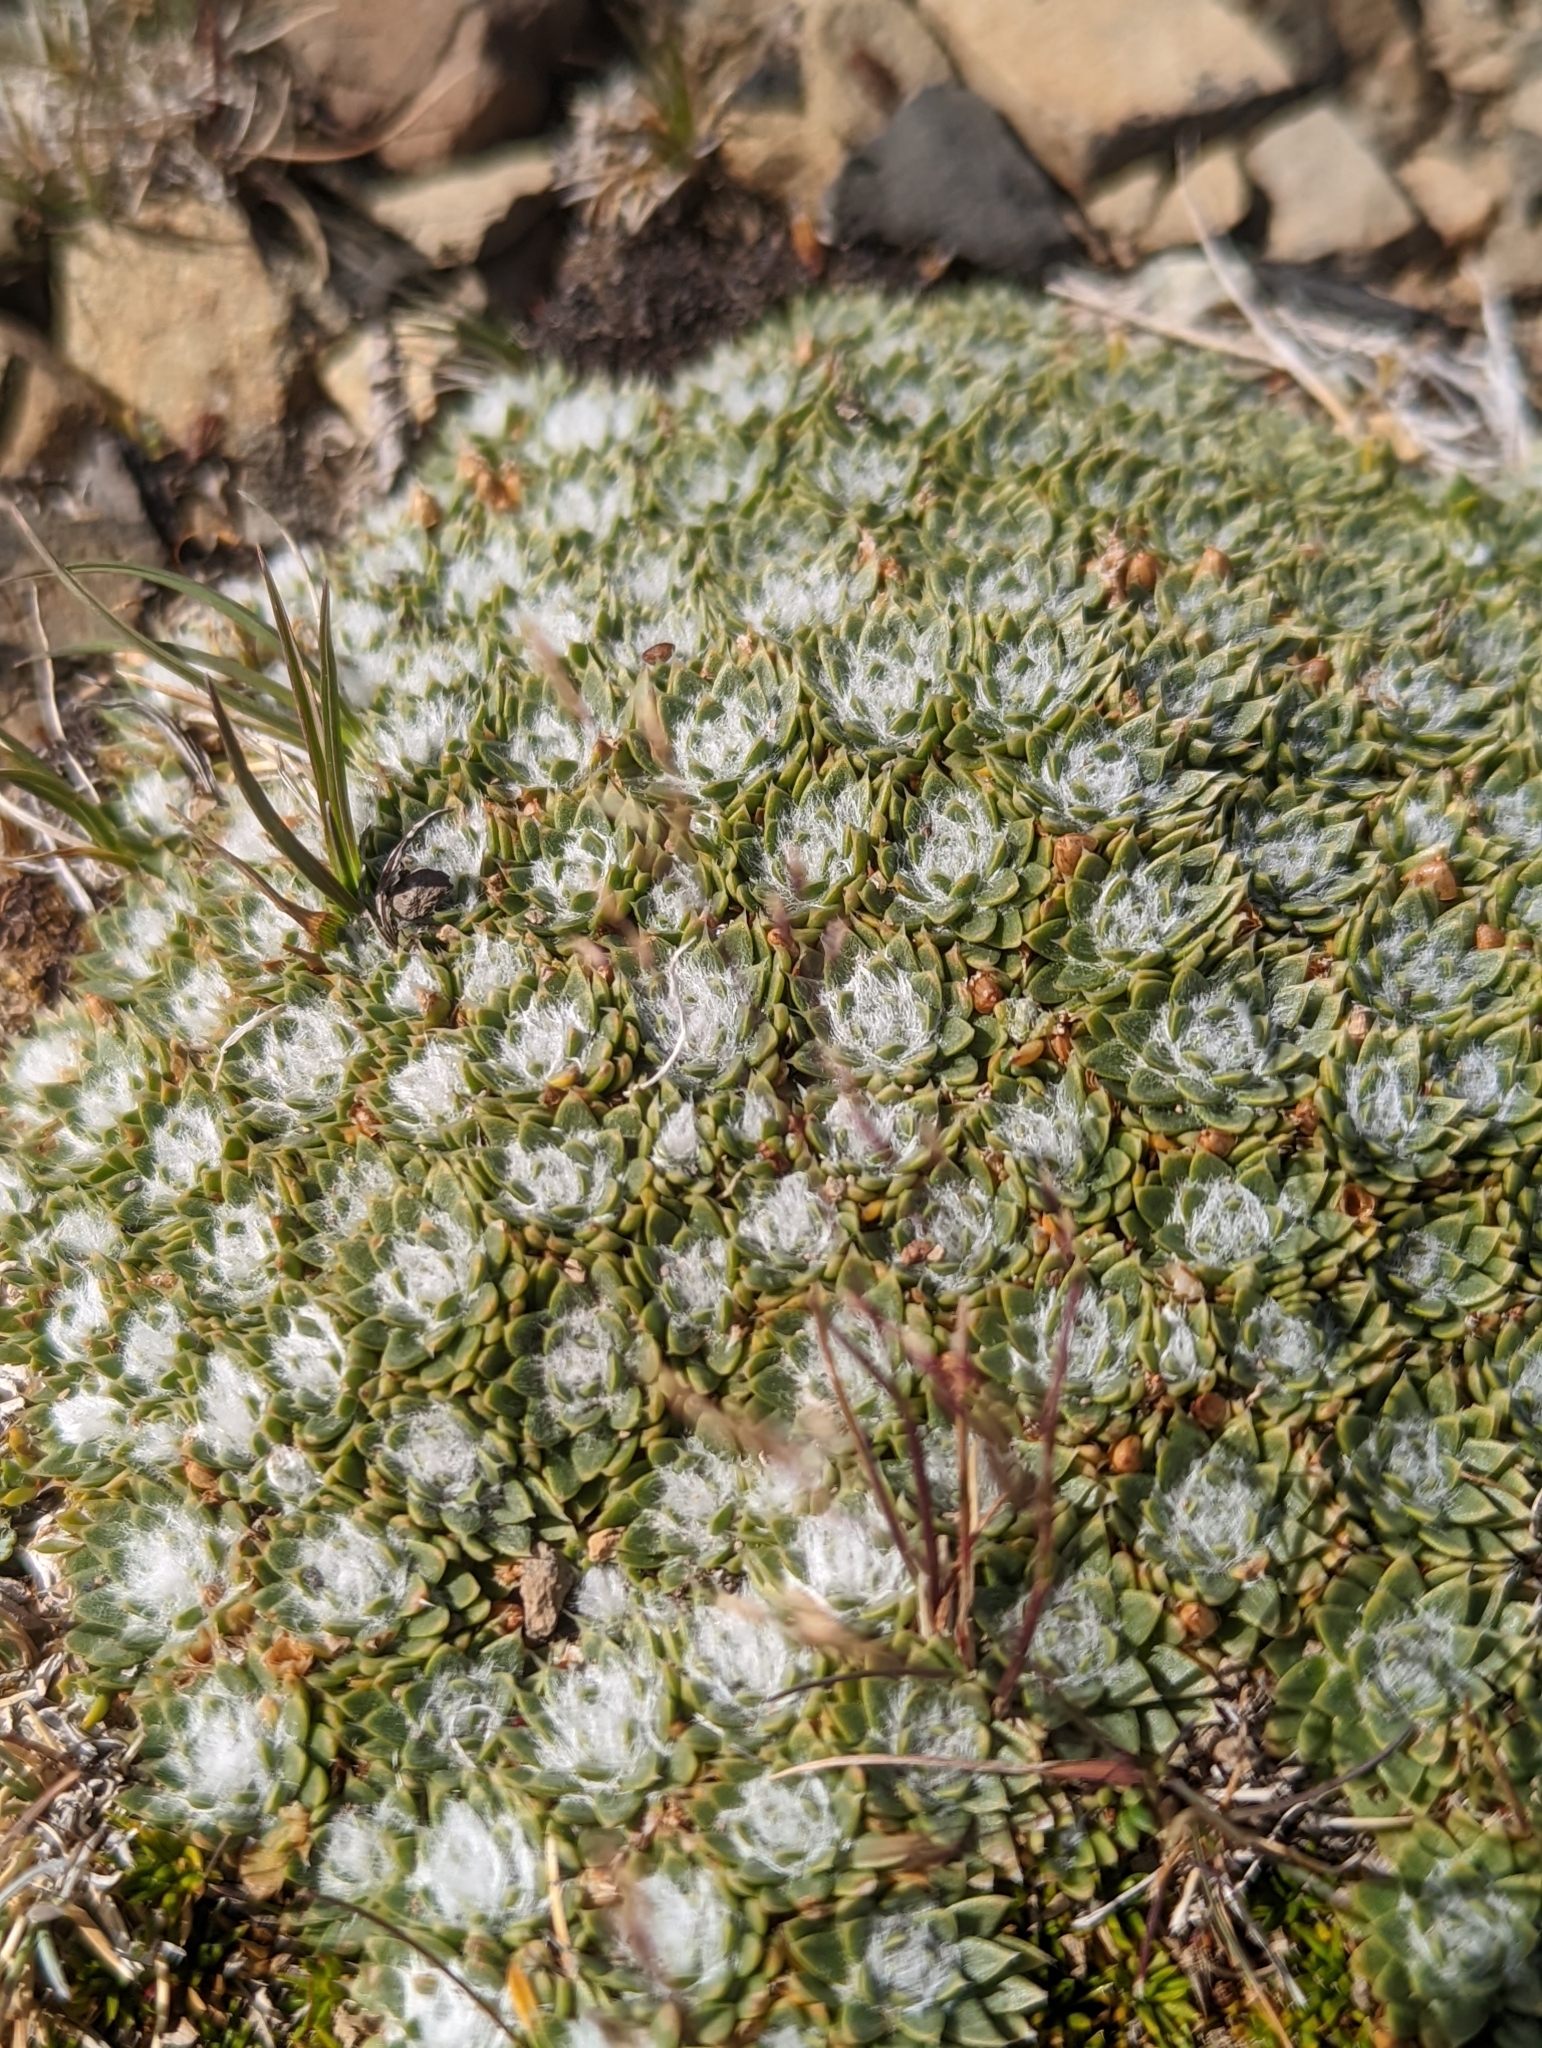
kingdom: Plantae
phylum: Tracheophyta
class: Magnoliopsida
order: Lamiales
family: Plantaginaceae
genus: Plantago
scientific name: Plantago sempervivoides
